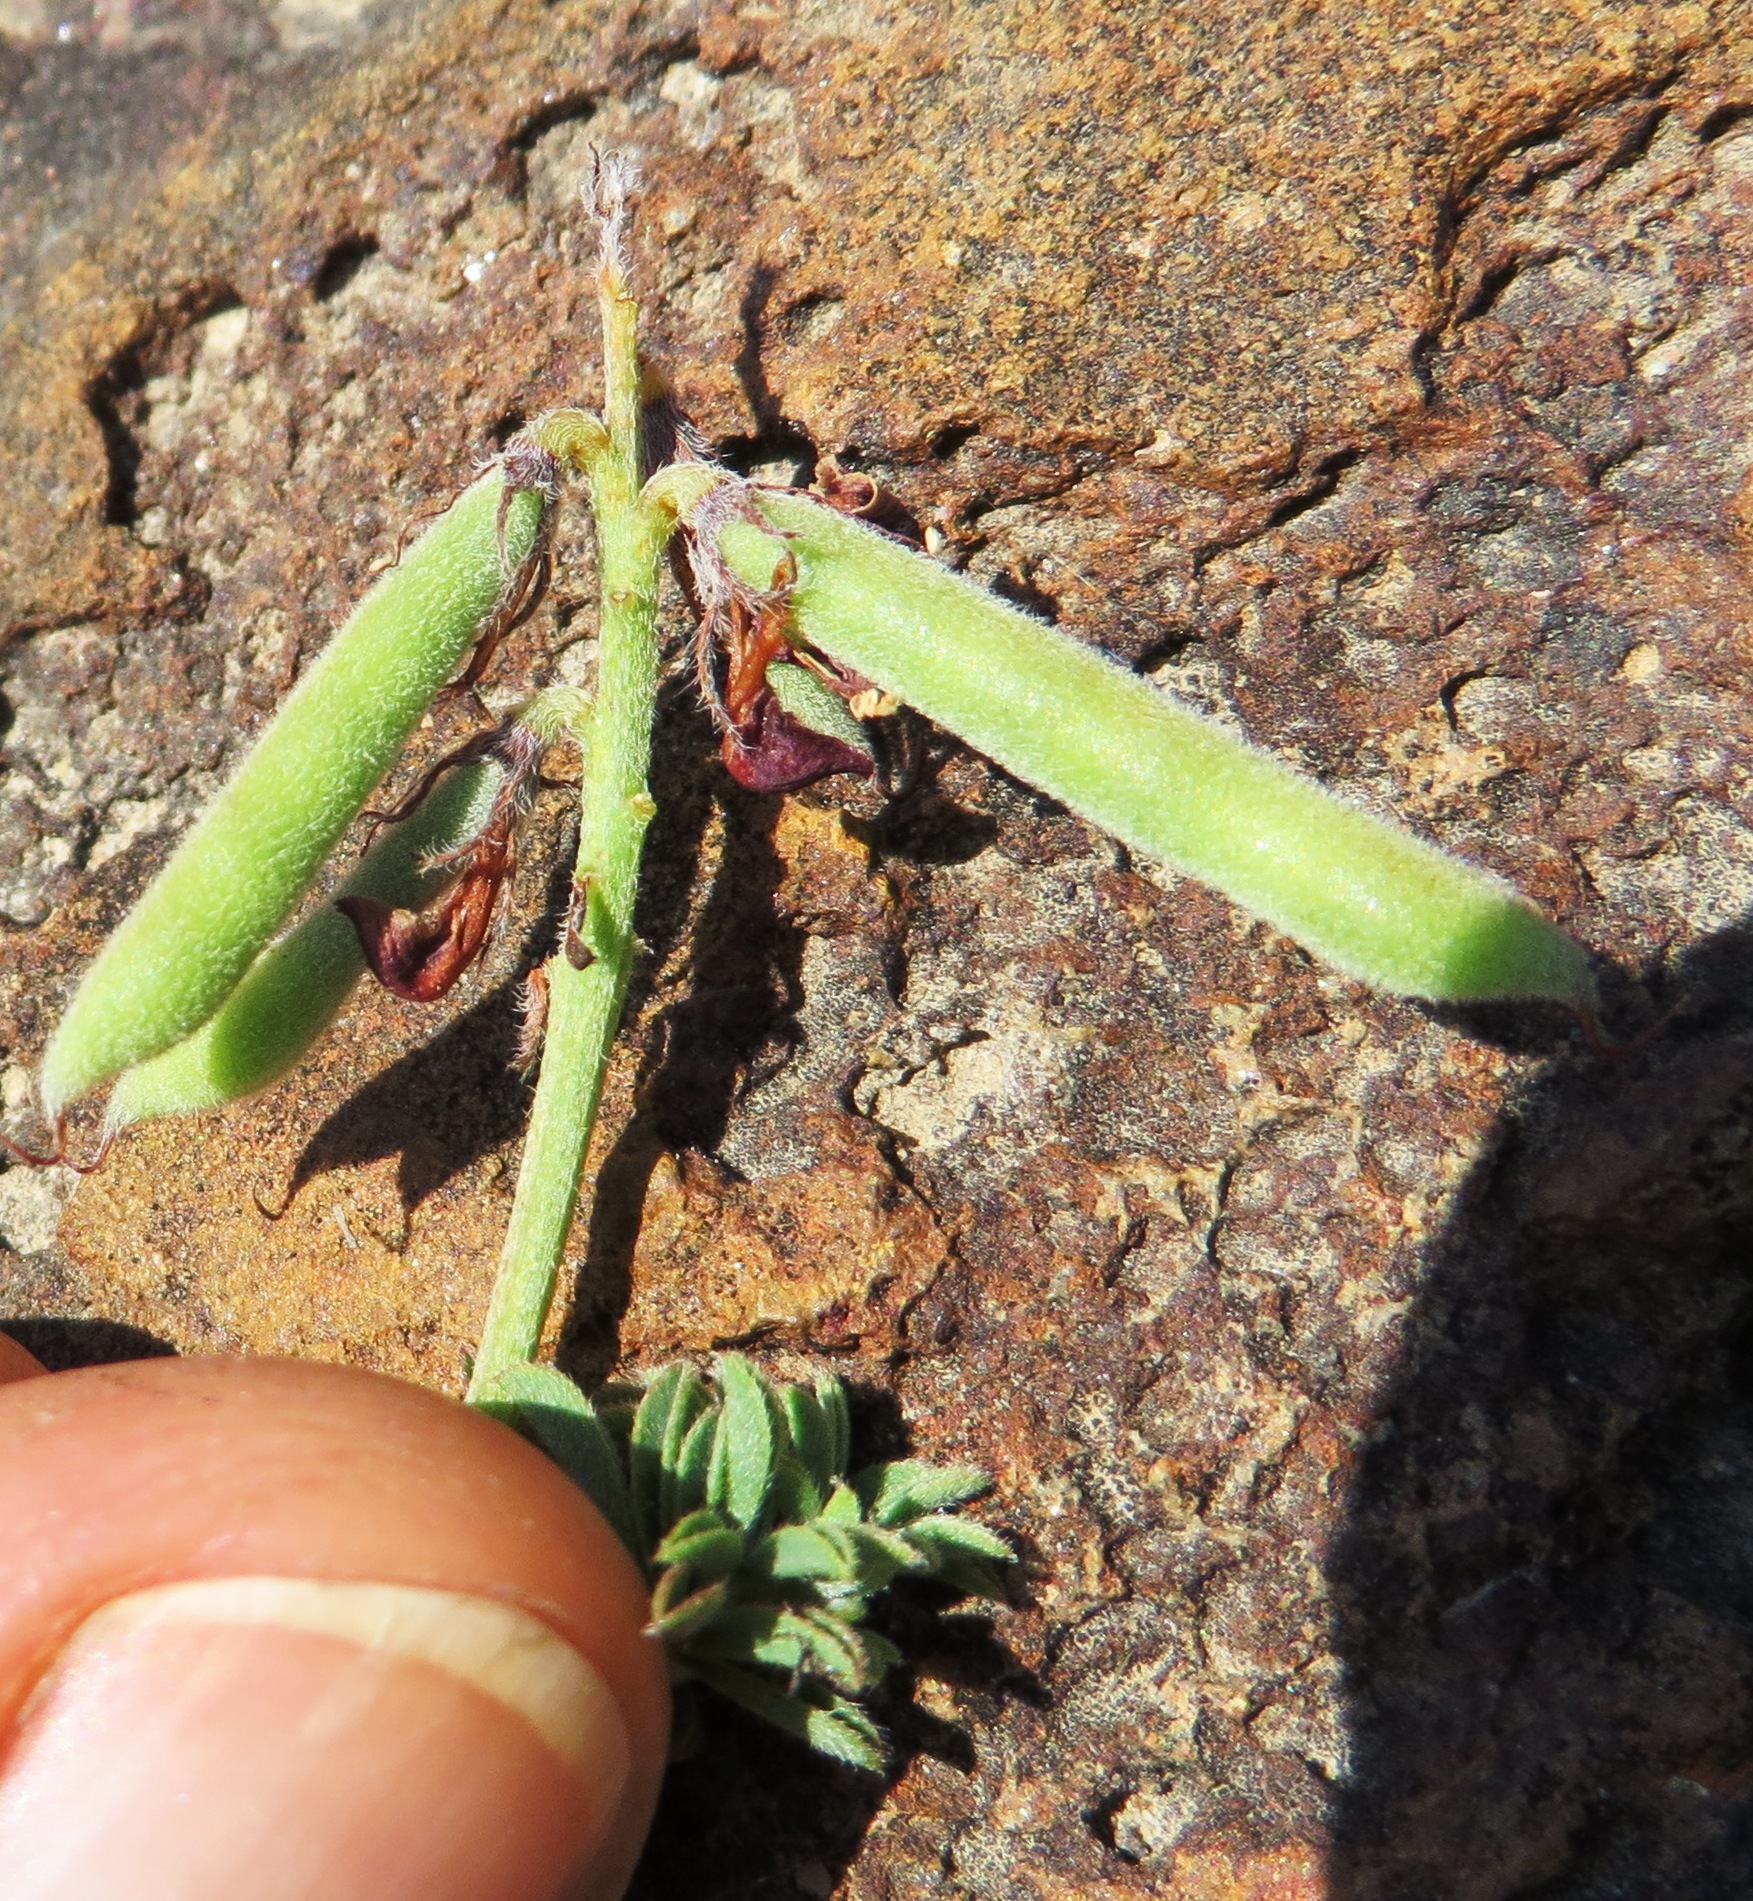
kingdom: Plantae
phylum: Tracheophyta
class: Magnoliopsida
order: Fabales
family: Fabaceae
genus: Indigofera
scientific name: Indigofera digitata
